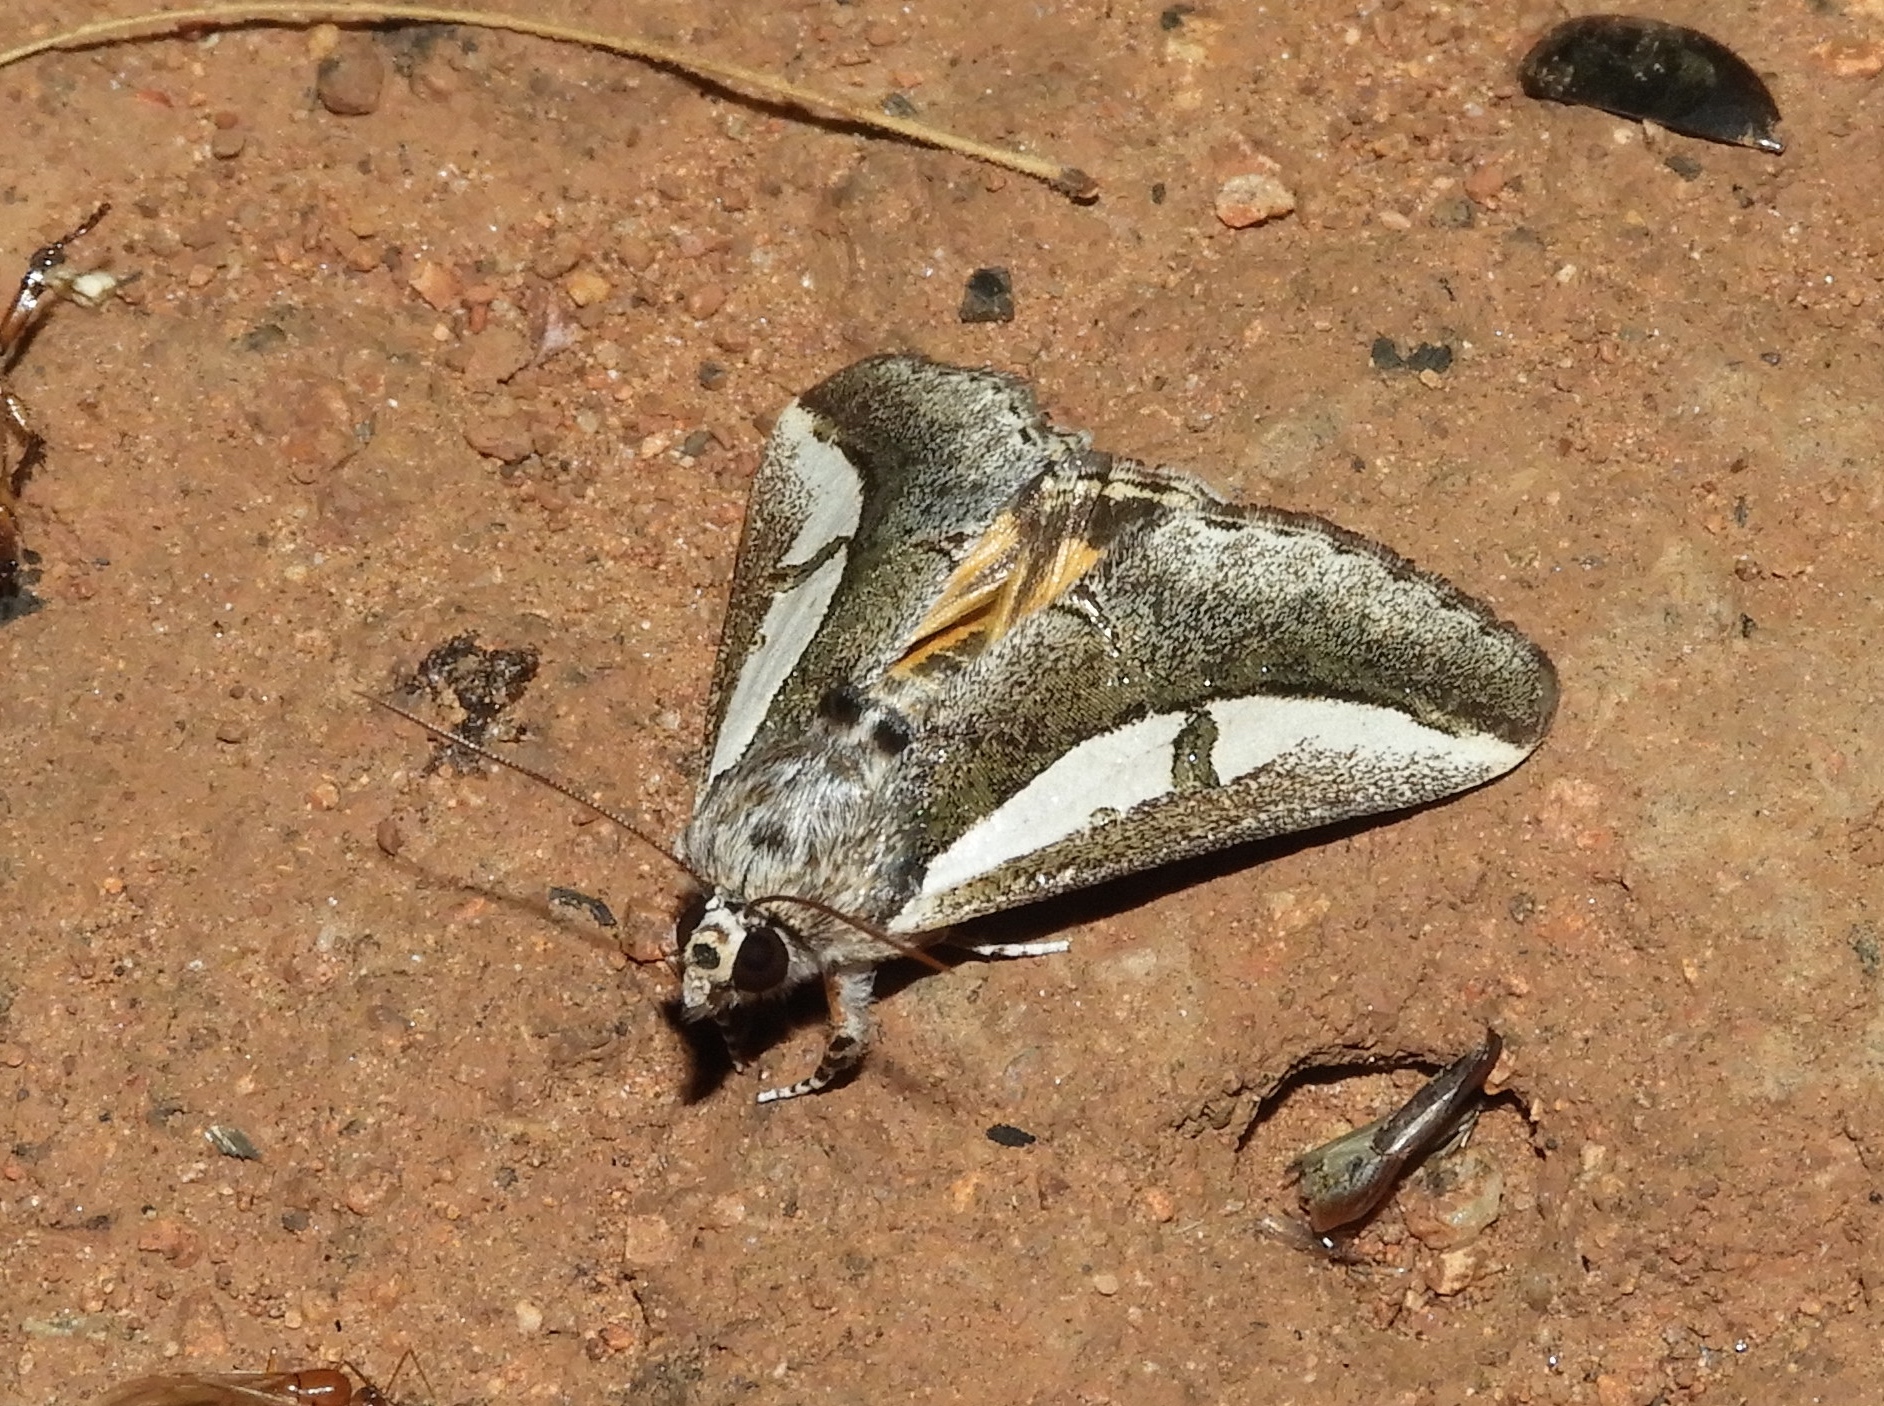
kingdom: Animalia
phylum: Arthropoda
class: Insecta
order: Lepidoptera
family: Noctuidae
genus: Euscirrhopterus
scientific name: Euscirrhopterus
